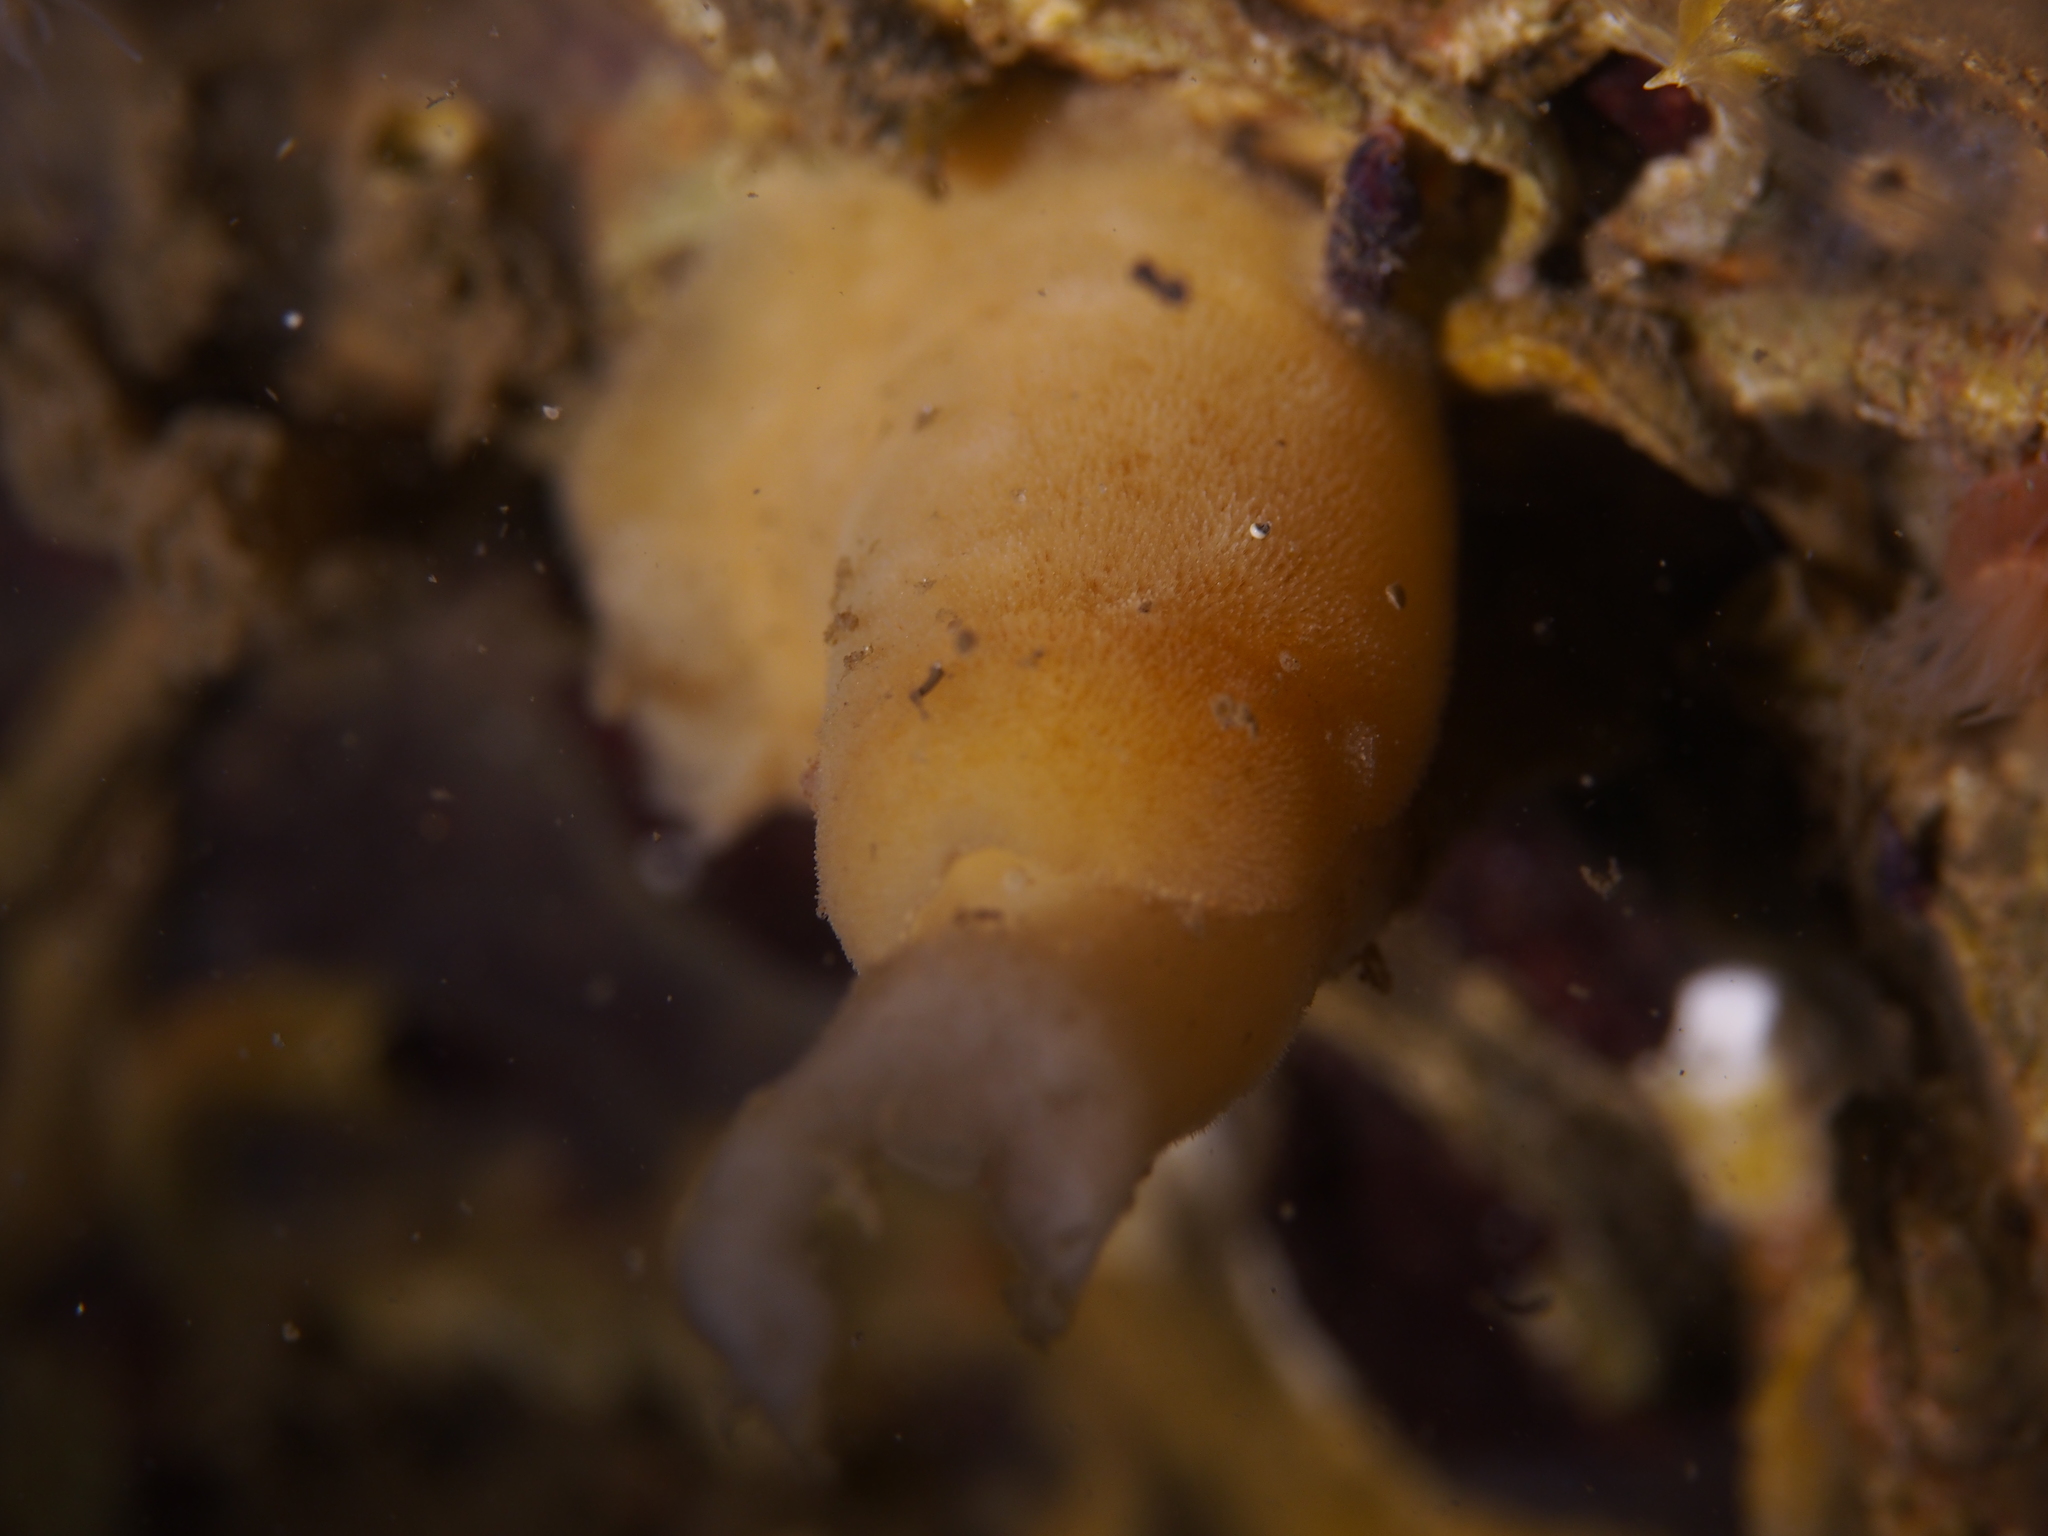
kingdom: Animalia
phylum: Mollusca
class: Gastropoda
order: Nudibranchia
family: Discodorididae
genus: Jorunna
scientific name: Jorunna tomentosa
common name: Grey sea slug
